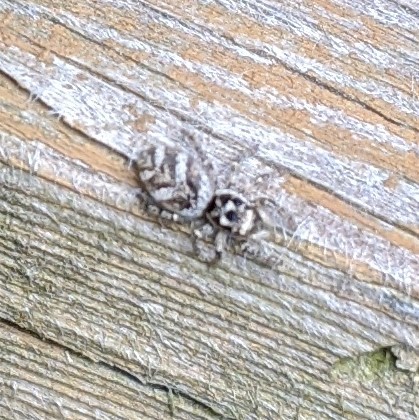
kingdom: Animalia
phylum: Arthropoda
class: Arachnida
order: Araneae
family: Salticidae
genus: Salticus
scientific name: Salticus scenicus
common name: Zebra jumper
